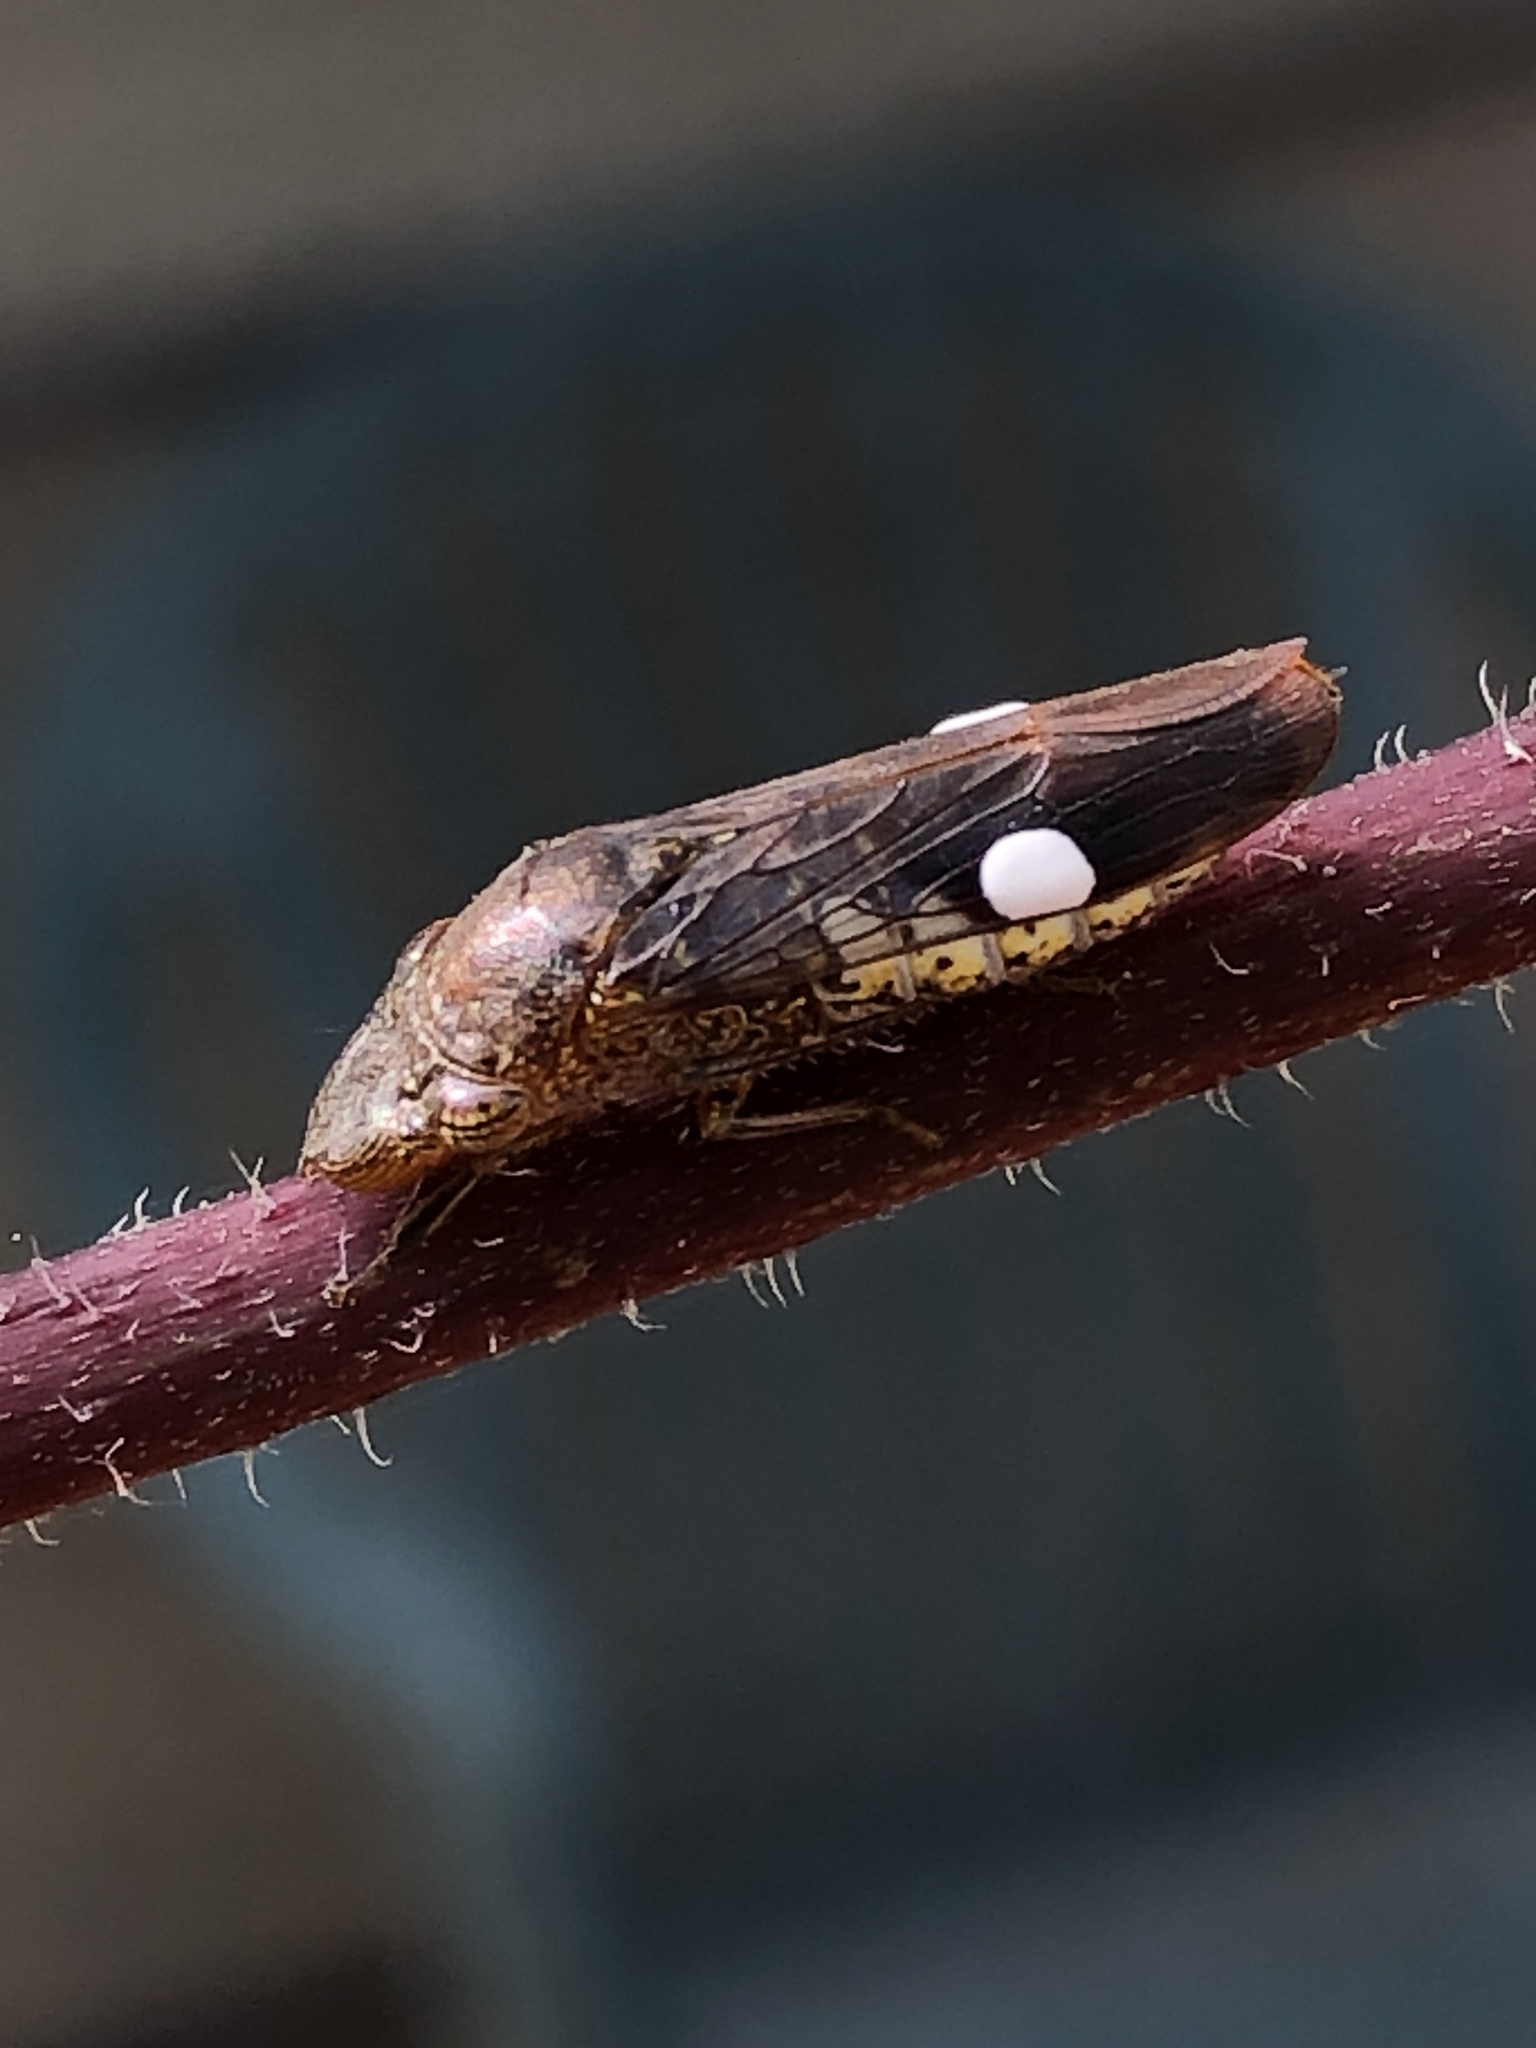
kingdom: Animalia
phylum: Arthropoda
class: Insecta
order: Hemiptera
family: Cicadellidae
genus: Homalodisca
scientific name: Homalodisca vitripennis
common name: Glassy-winged sharpshooter
